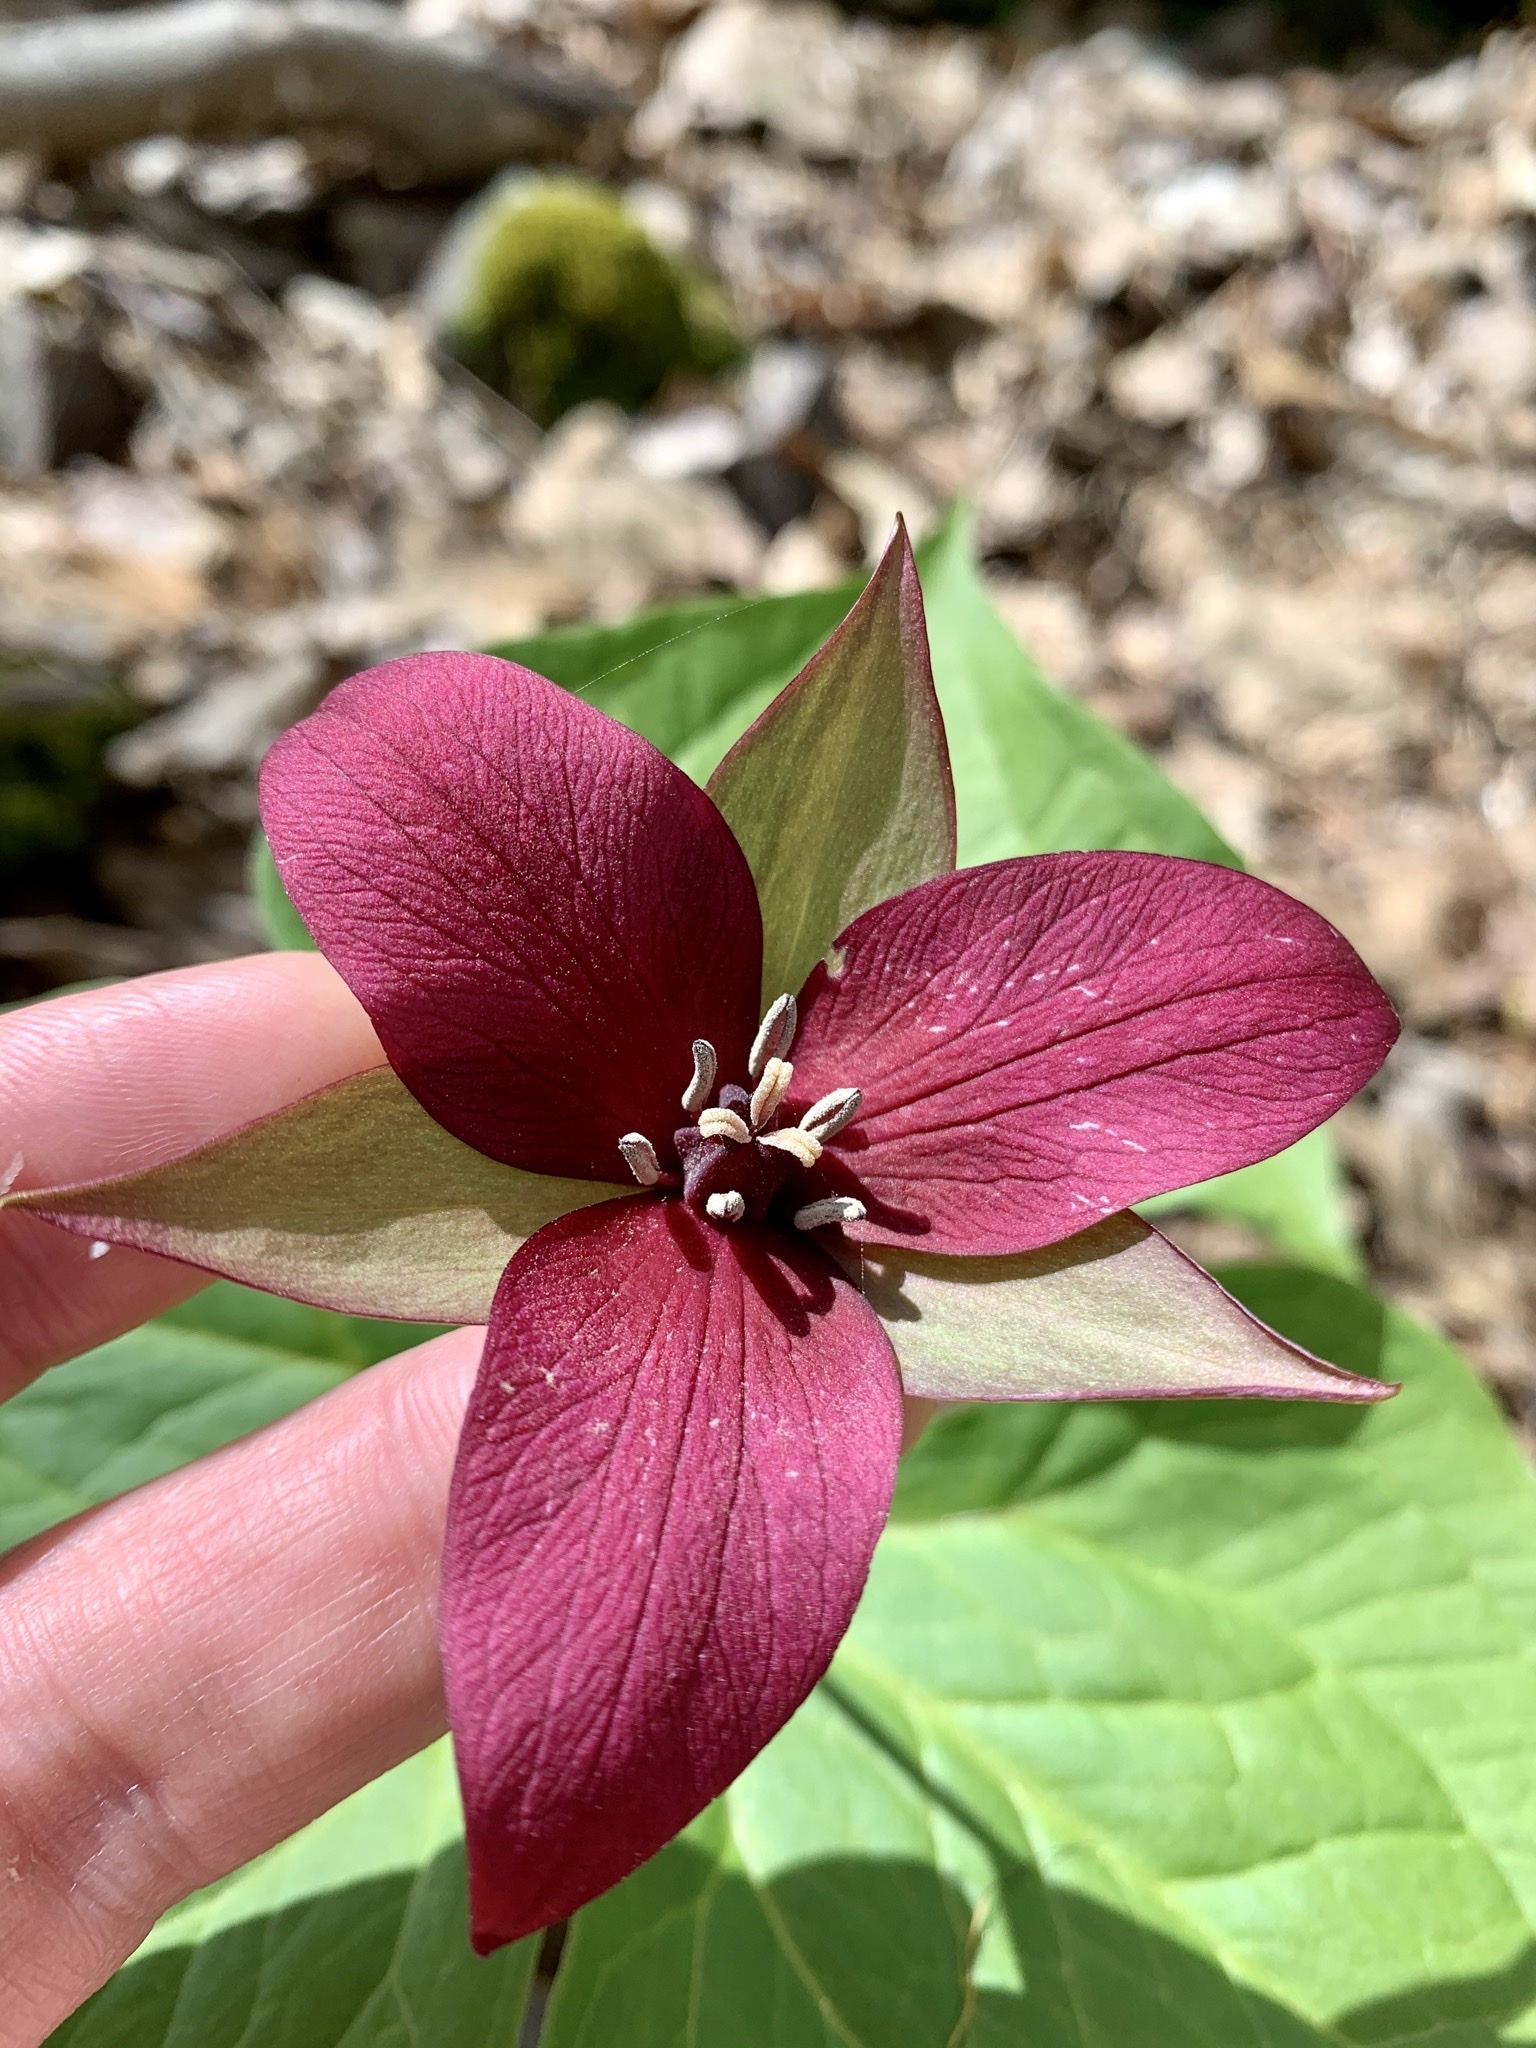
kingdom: Plantae
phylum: Tracheophyta
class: Liliopsida
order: Liliales
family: Melanthiaceae
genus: Trillium
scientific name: Trillium erectum
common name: Purple trillium
